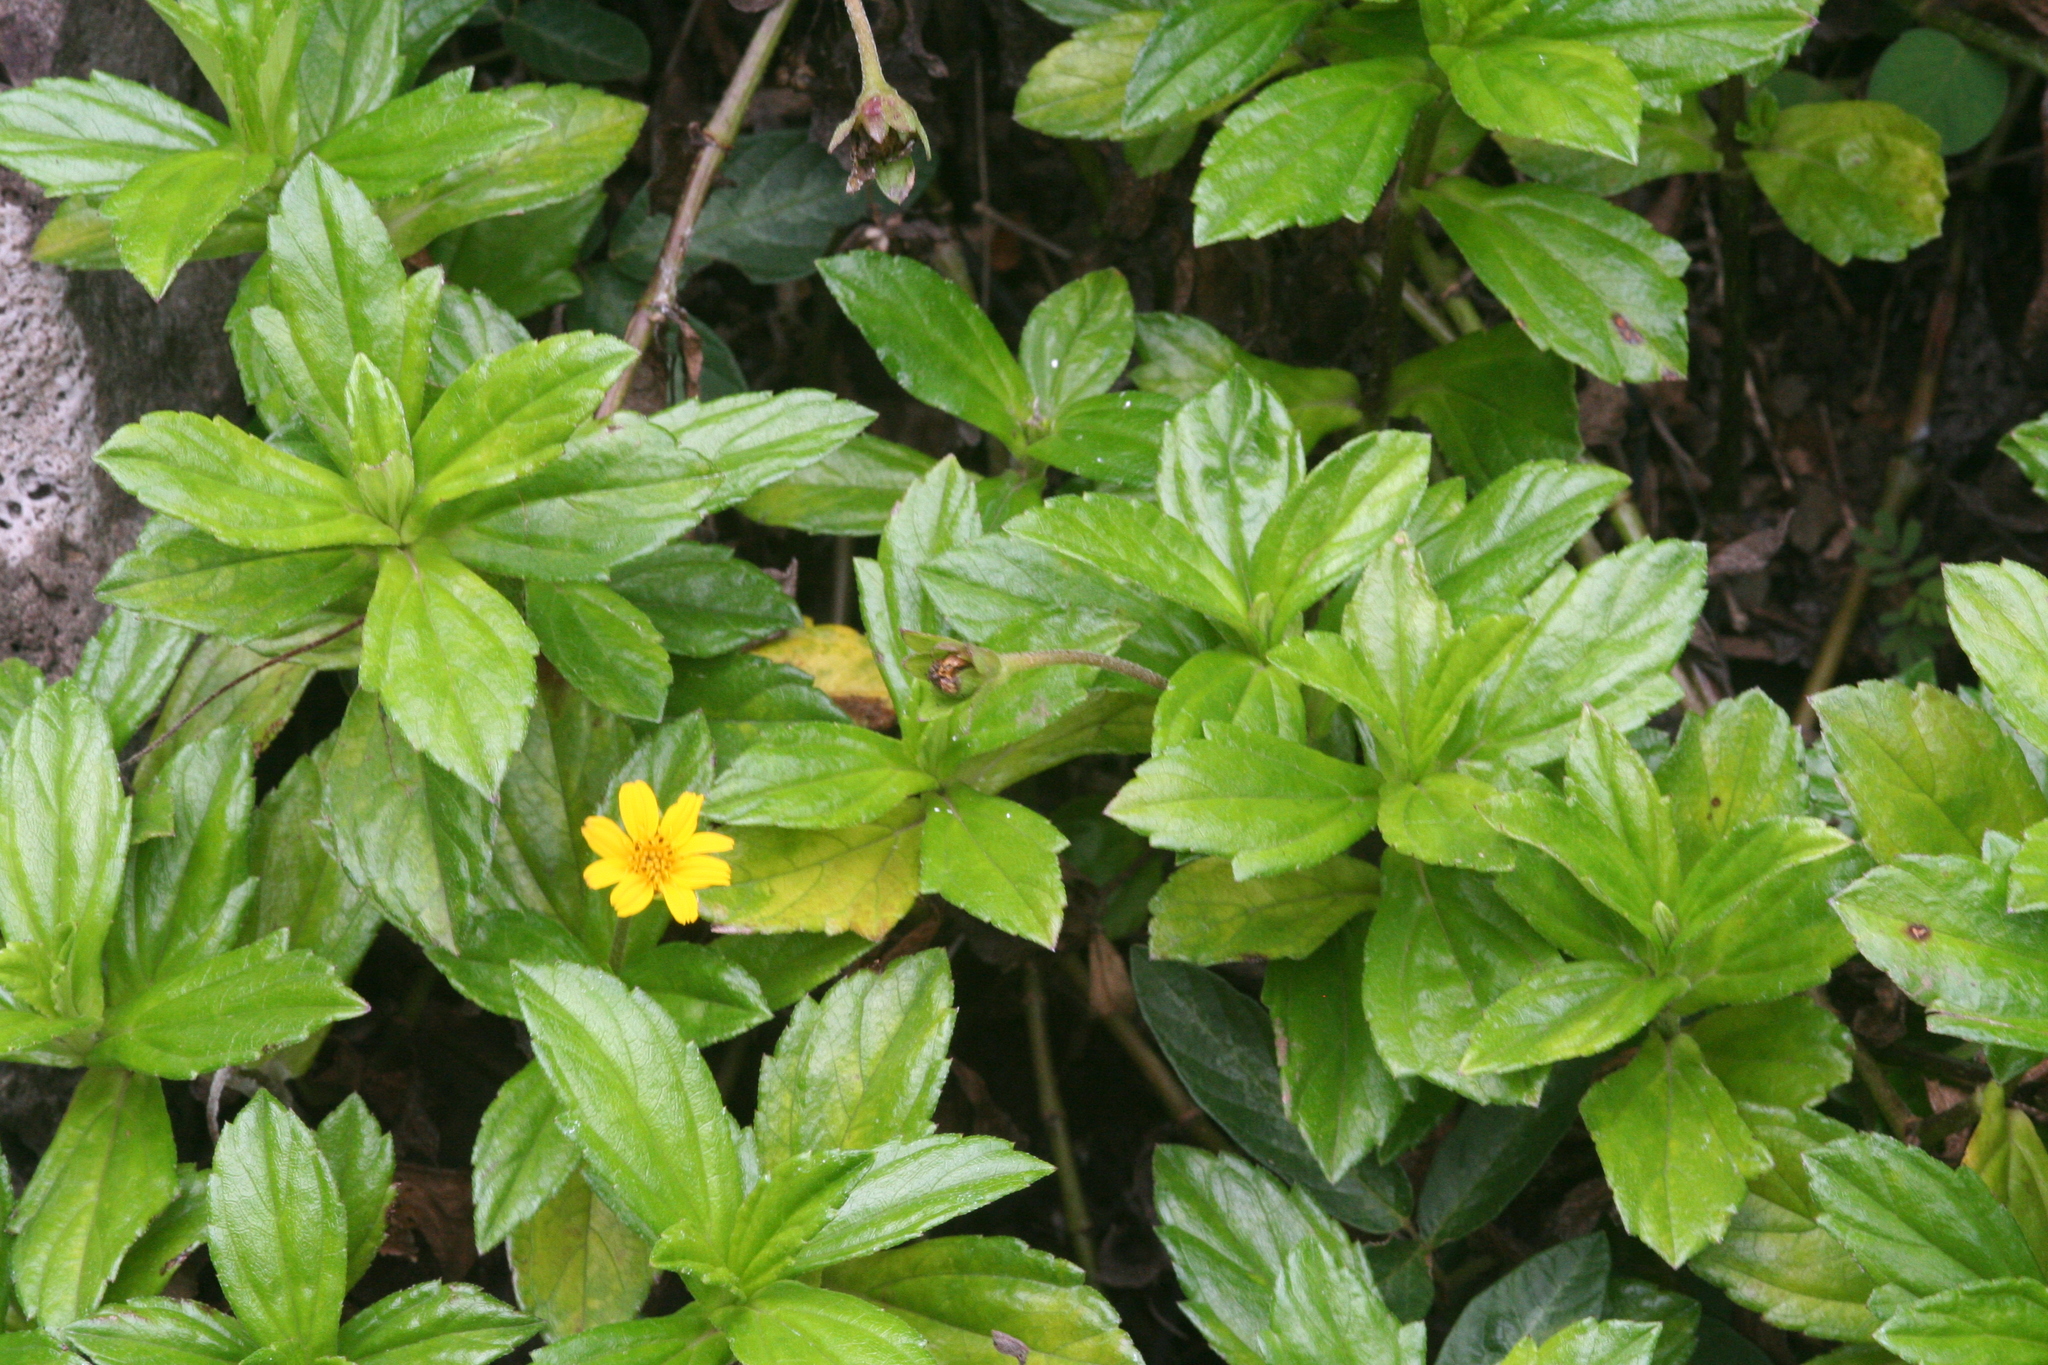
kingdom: Plantae
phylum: Tracheophyta
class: Magnoliopsida
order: Asterales
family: Asteraceae
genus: Sphagneticola
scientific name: Sphagneticola trilobata
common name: Bay biscayne creeping-oxeye
